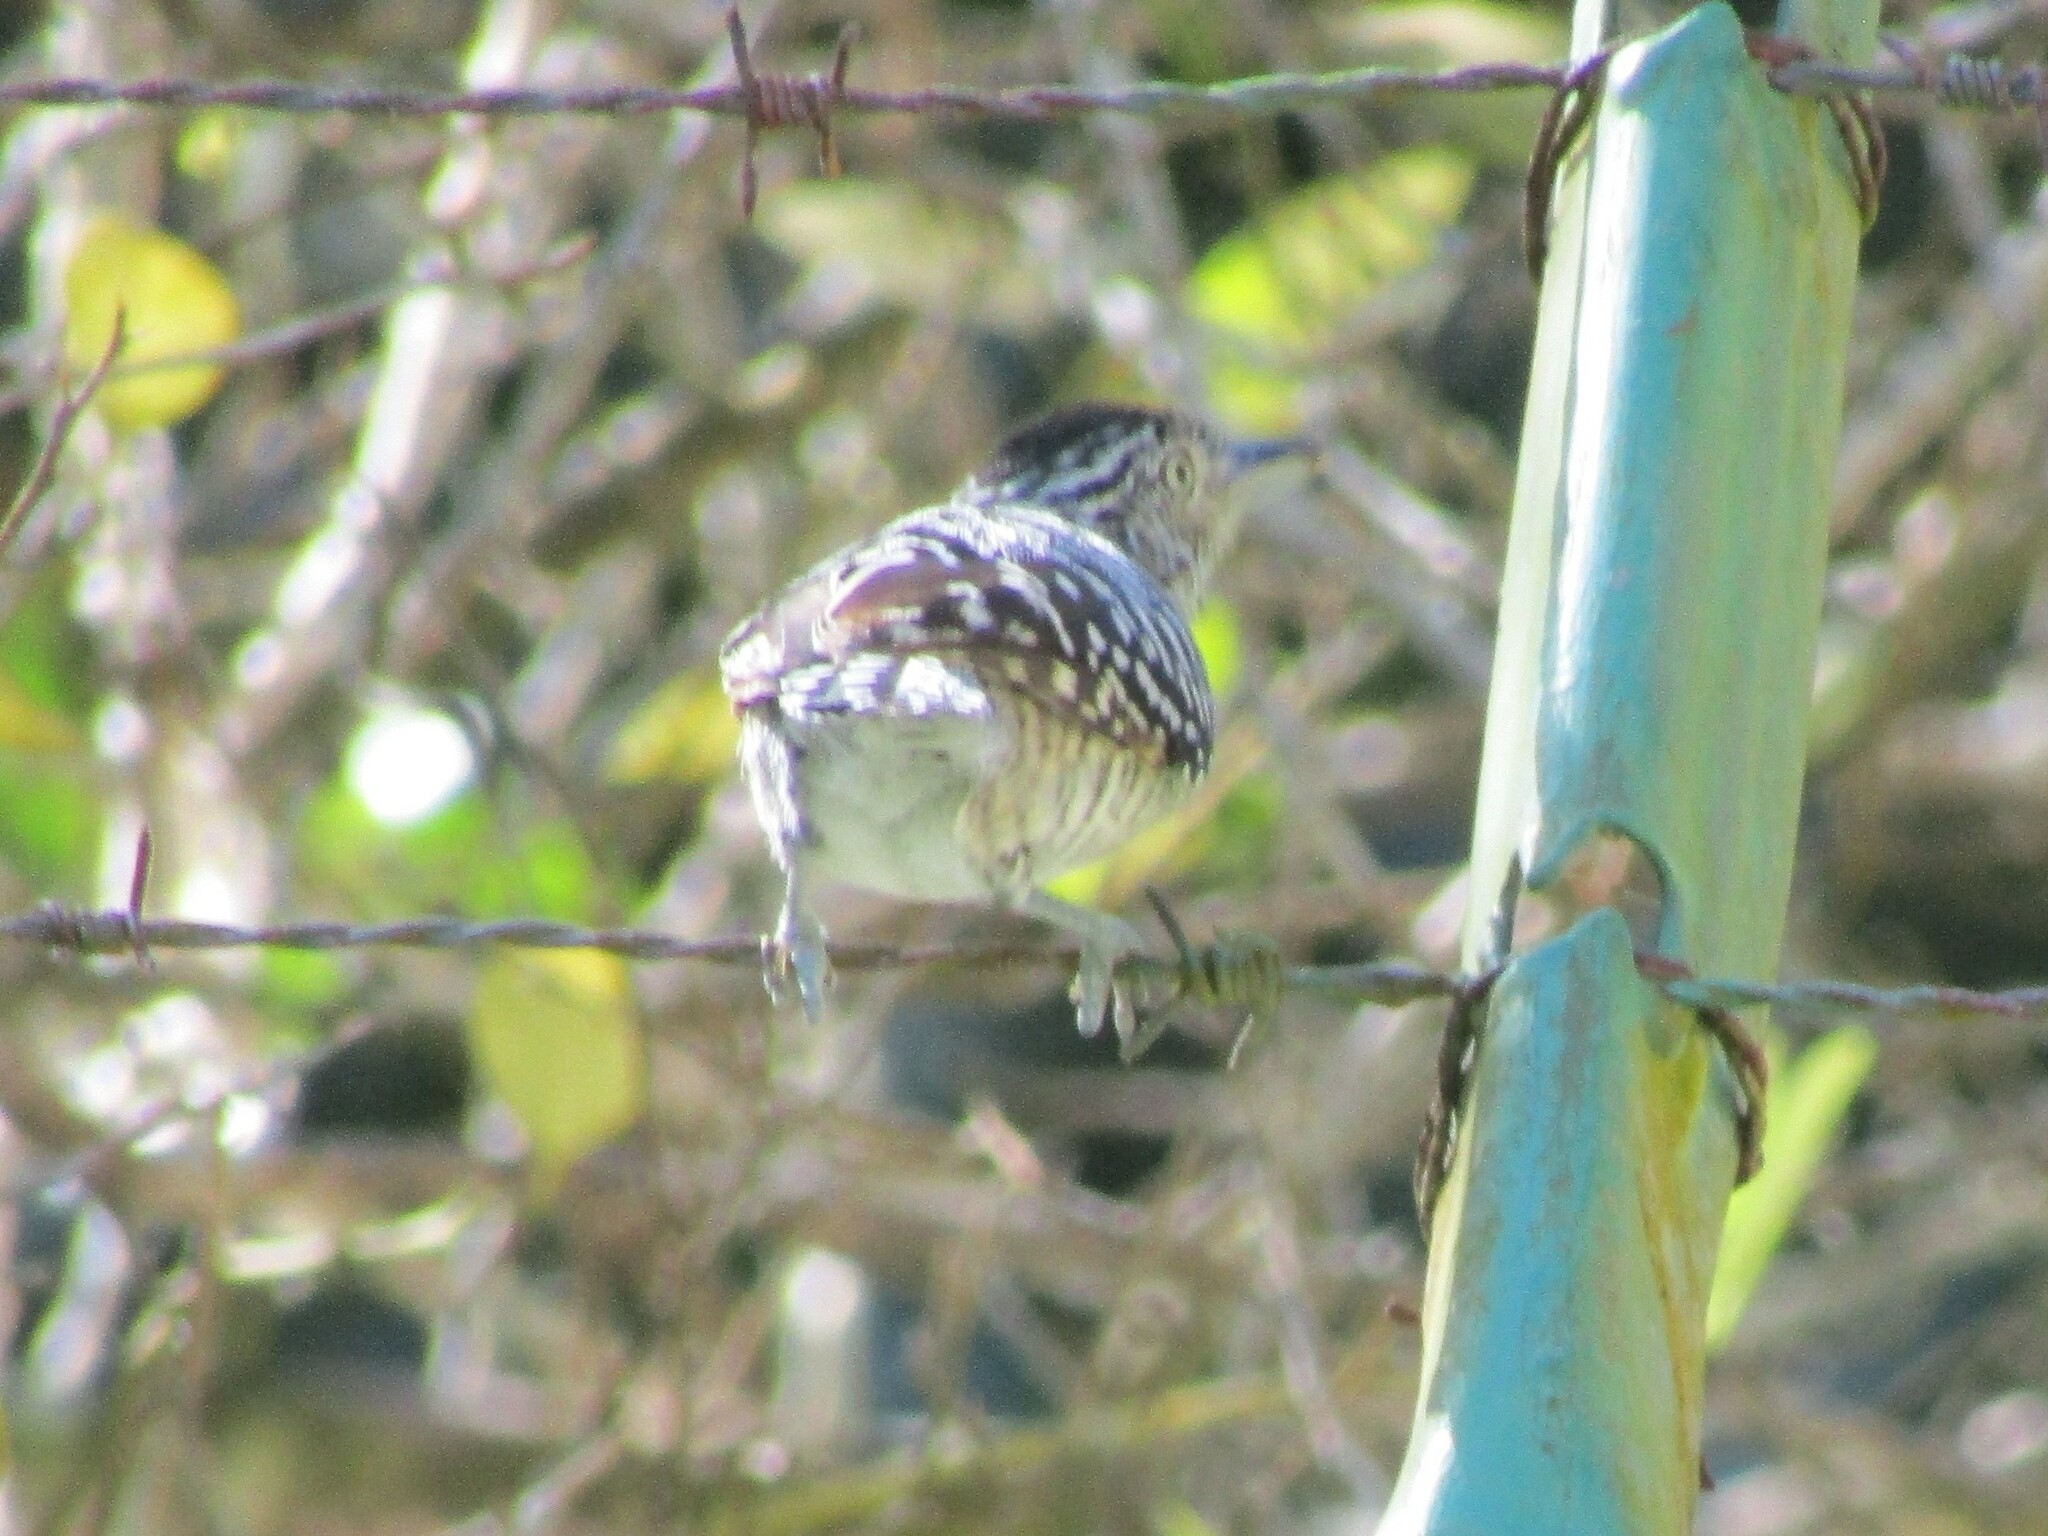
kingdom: Animalia
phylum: Chordata
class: Aves
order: Passeriformes
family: Thamnophilidae
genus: Thamnophilus
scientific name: Thamnophilus doliatus
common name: Barred antshrike
